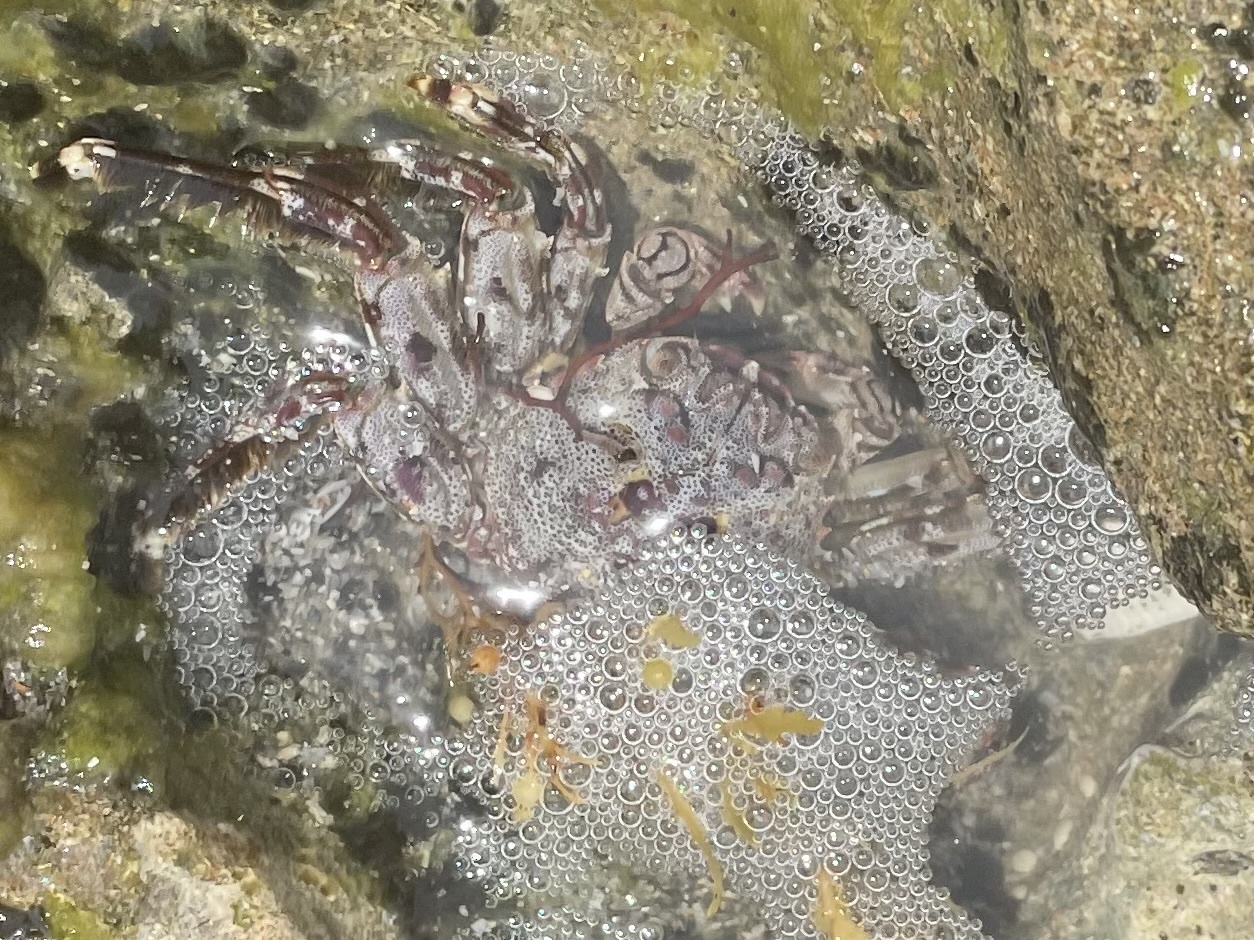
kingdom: Animalia
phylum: Arthropoda
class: Malacostraca
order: Decapoda
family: Plagusiidae
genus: Plagusia
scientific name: Plagusia depressa
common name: Flattened crab
